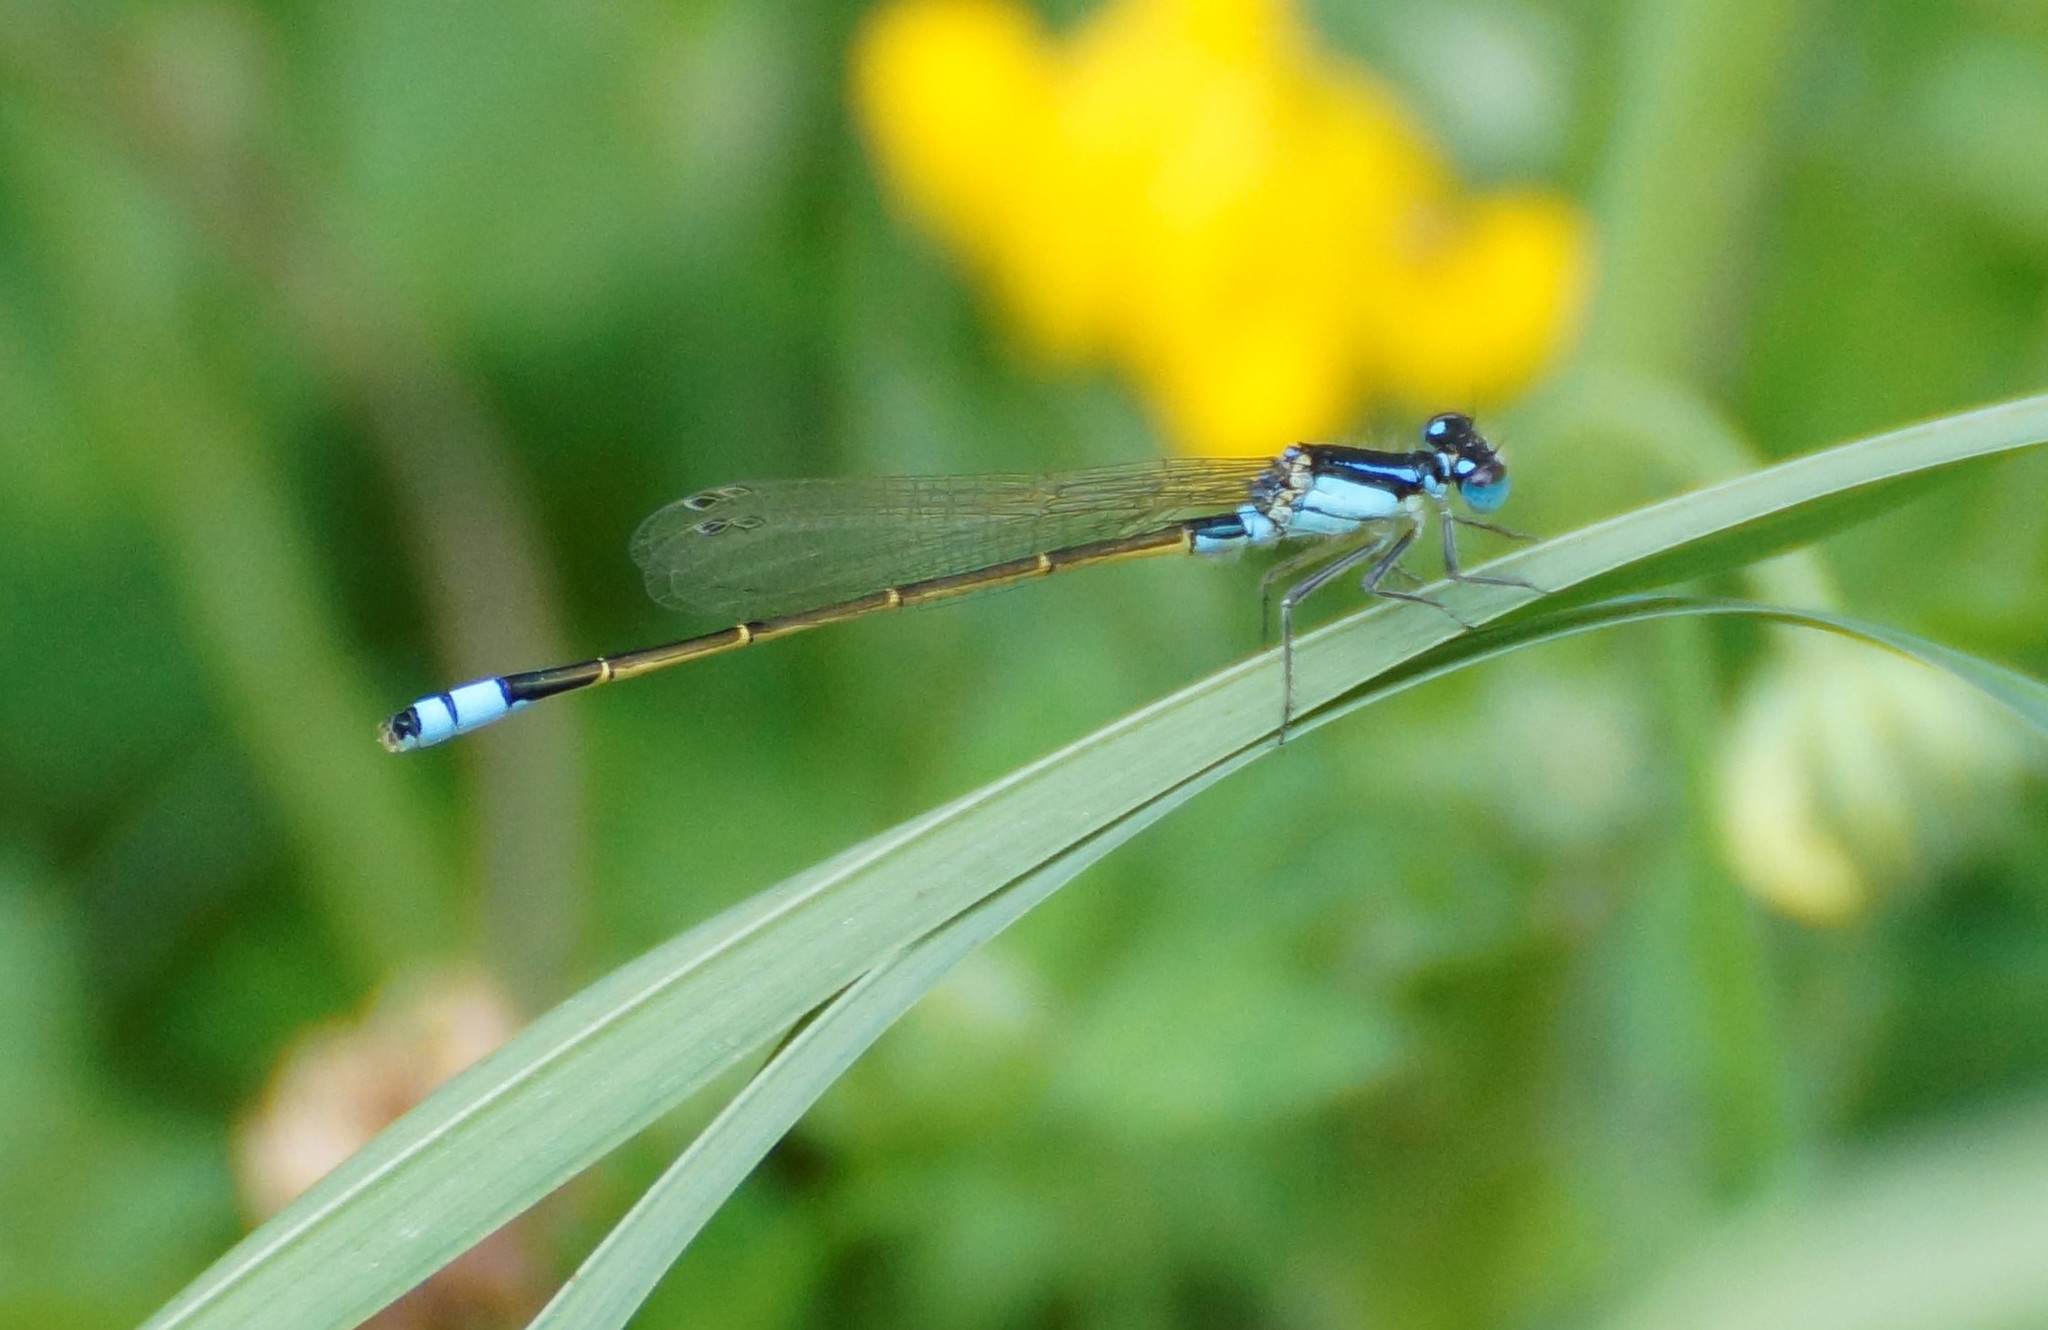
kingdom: Animalia
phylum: Arthropoda
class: Insecta
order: Odonata
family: Coenagrionidae
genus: Ischnura
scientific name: Ischnura heterosticta
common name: Common bluetail
